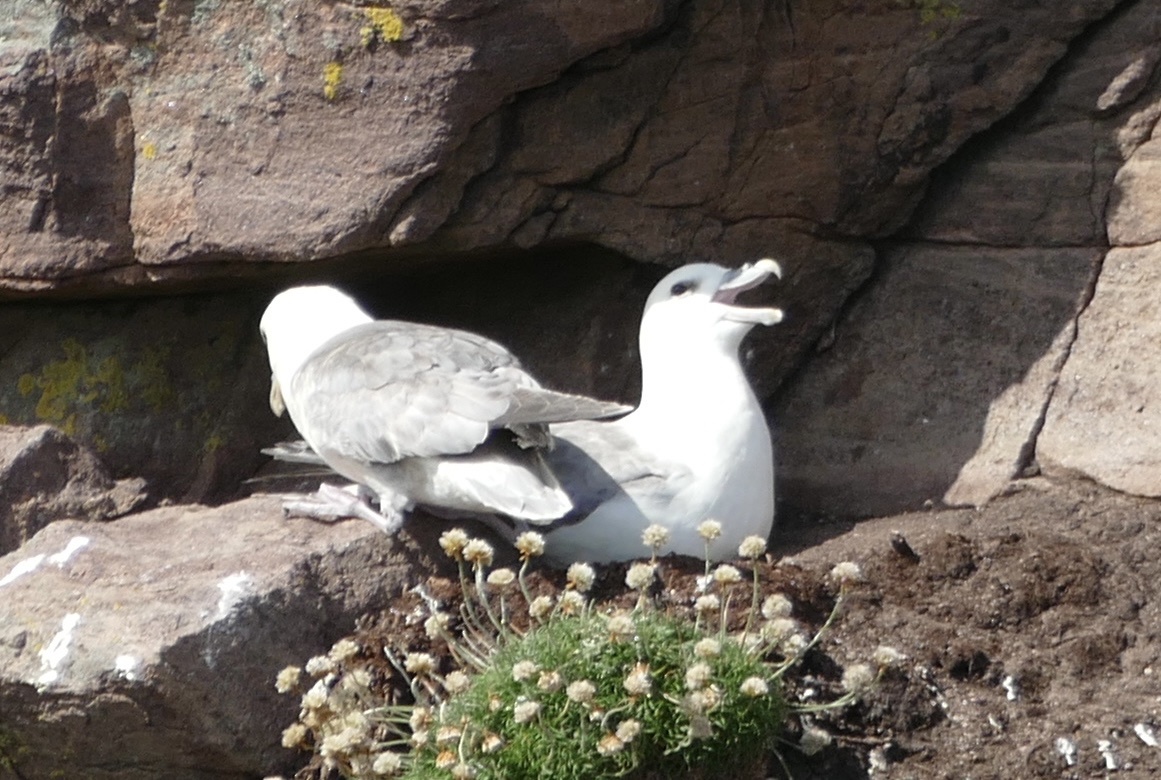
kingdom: Animalia
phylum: Chordata
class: Aves
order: Procellariiformes
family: Procellariidae
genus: Fulmarus
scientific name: Fulmarus glacialis
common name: Northern fulmar
